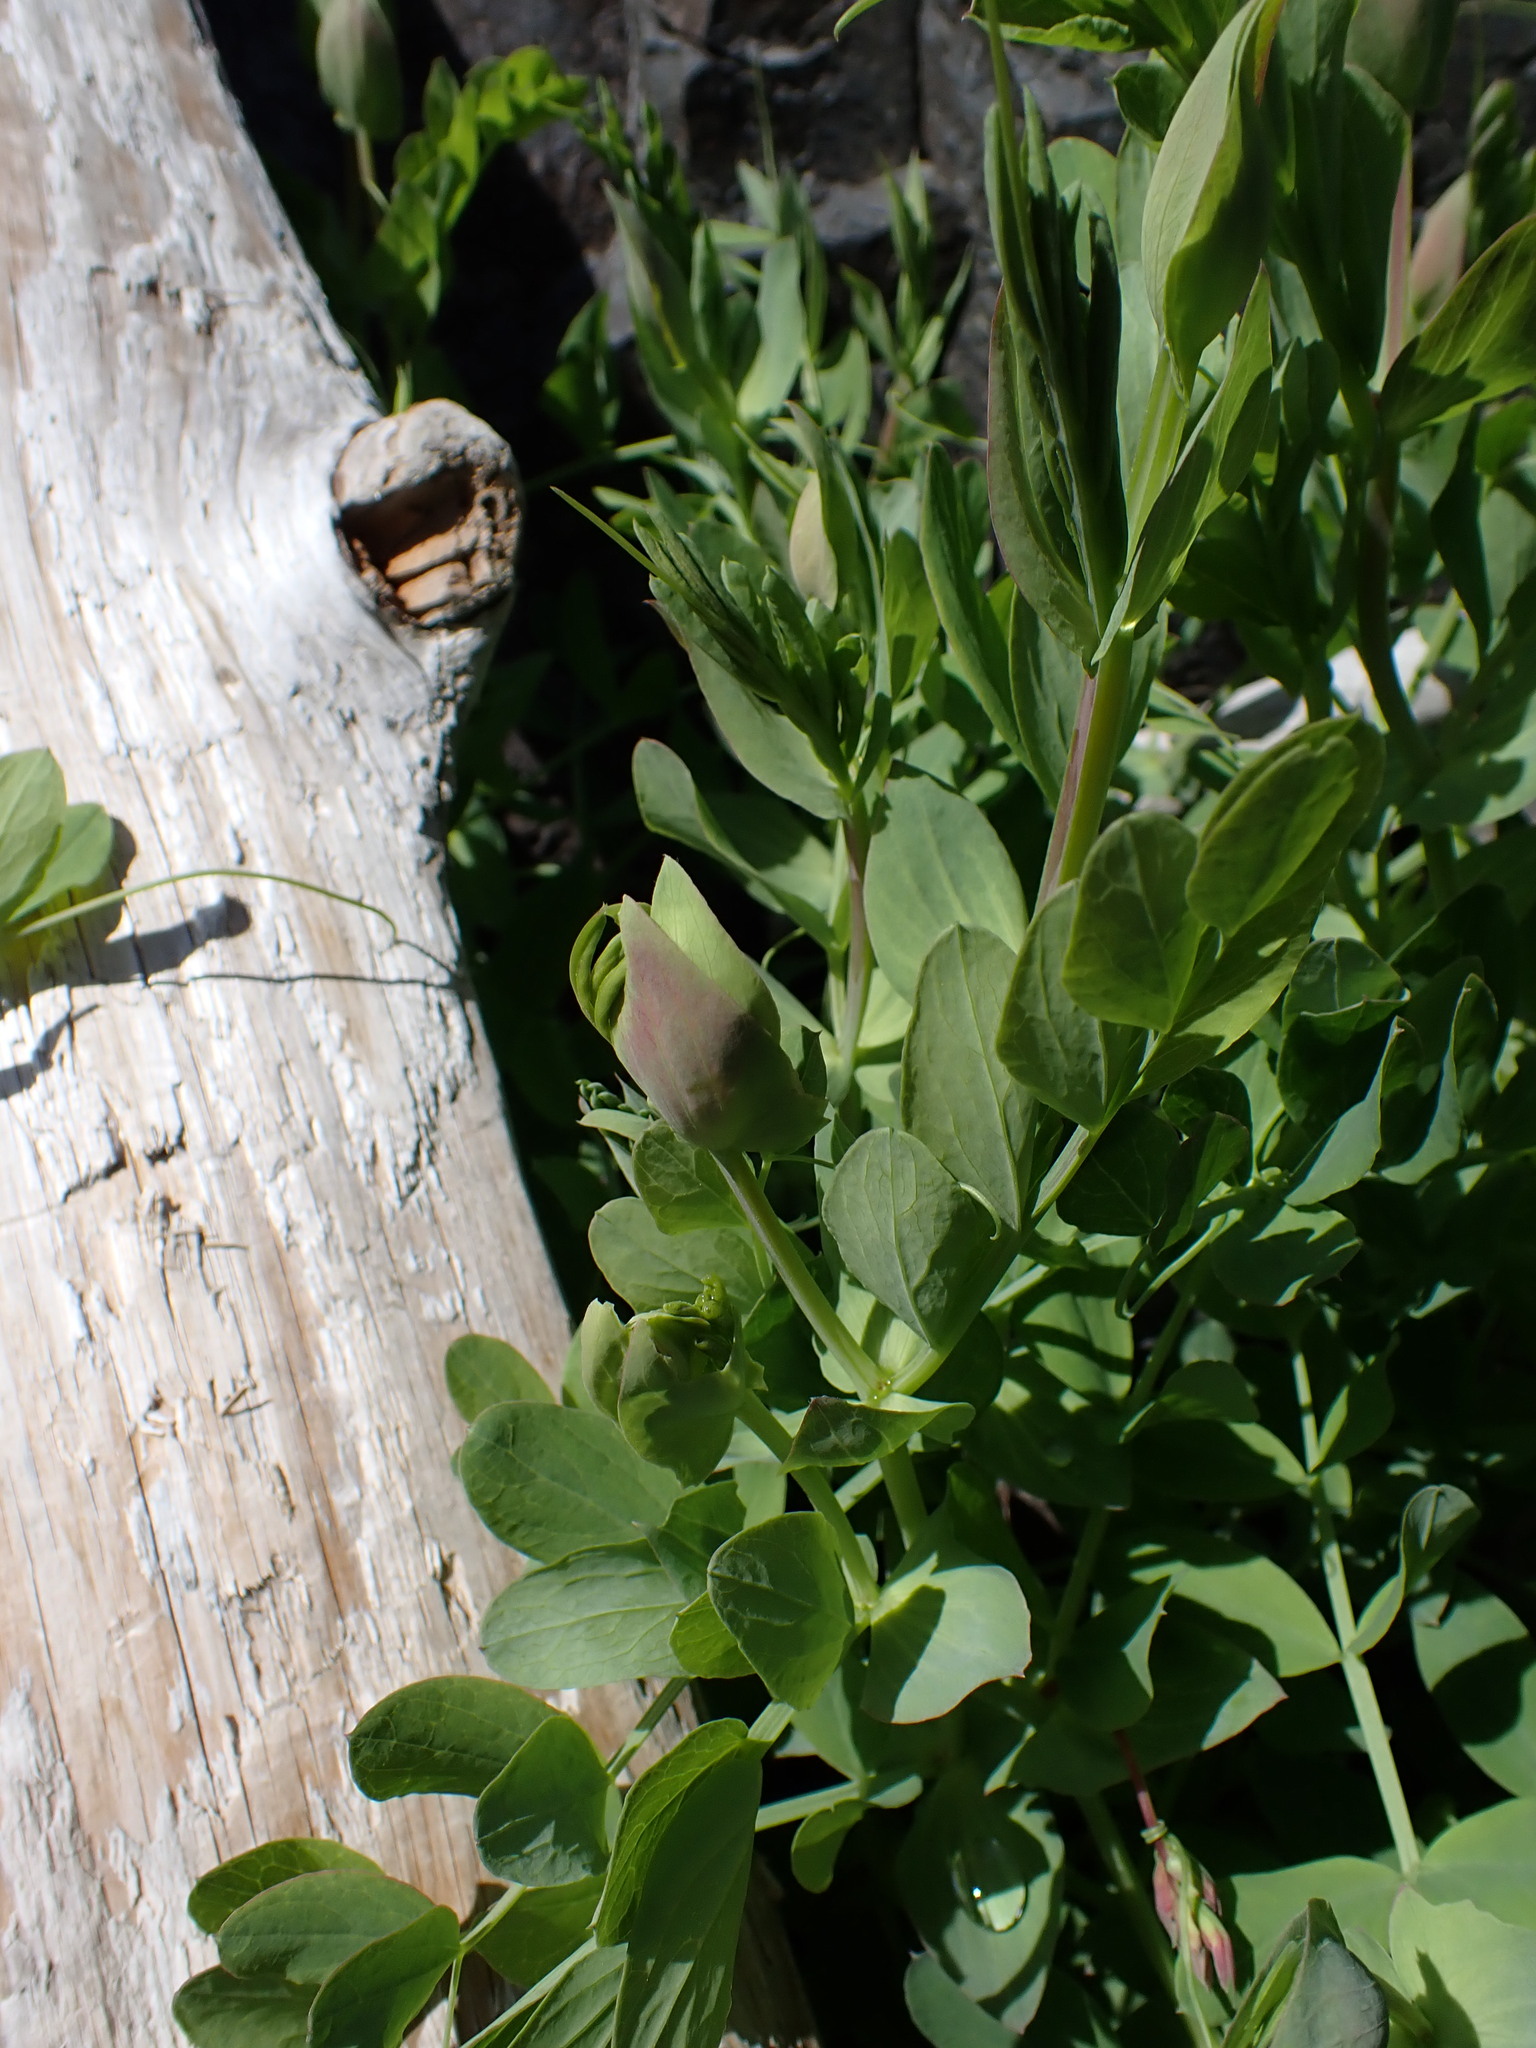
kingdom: Plantae
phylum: Tracheophyta
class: Magnoliopsida
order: Fabales
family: Fabaceae
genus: Lathyrus
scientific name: Lathyrus japonicus
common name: Sea pea
